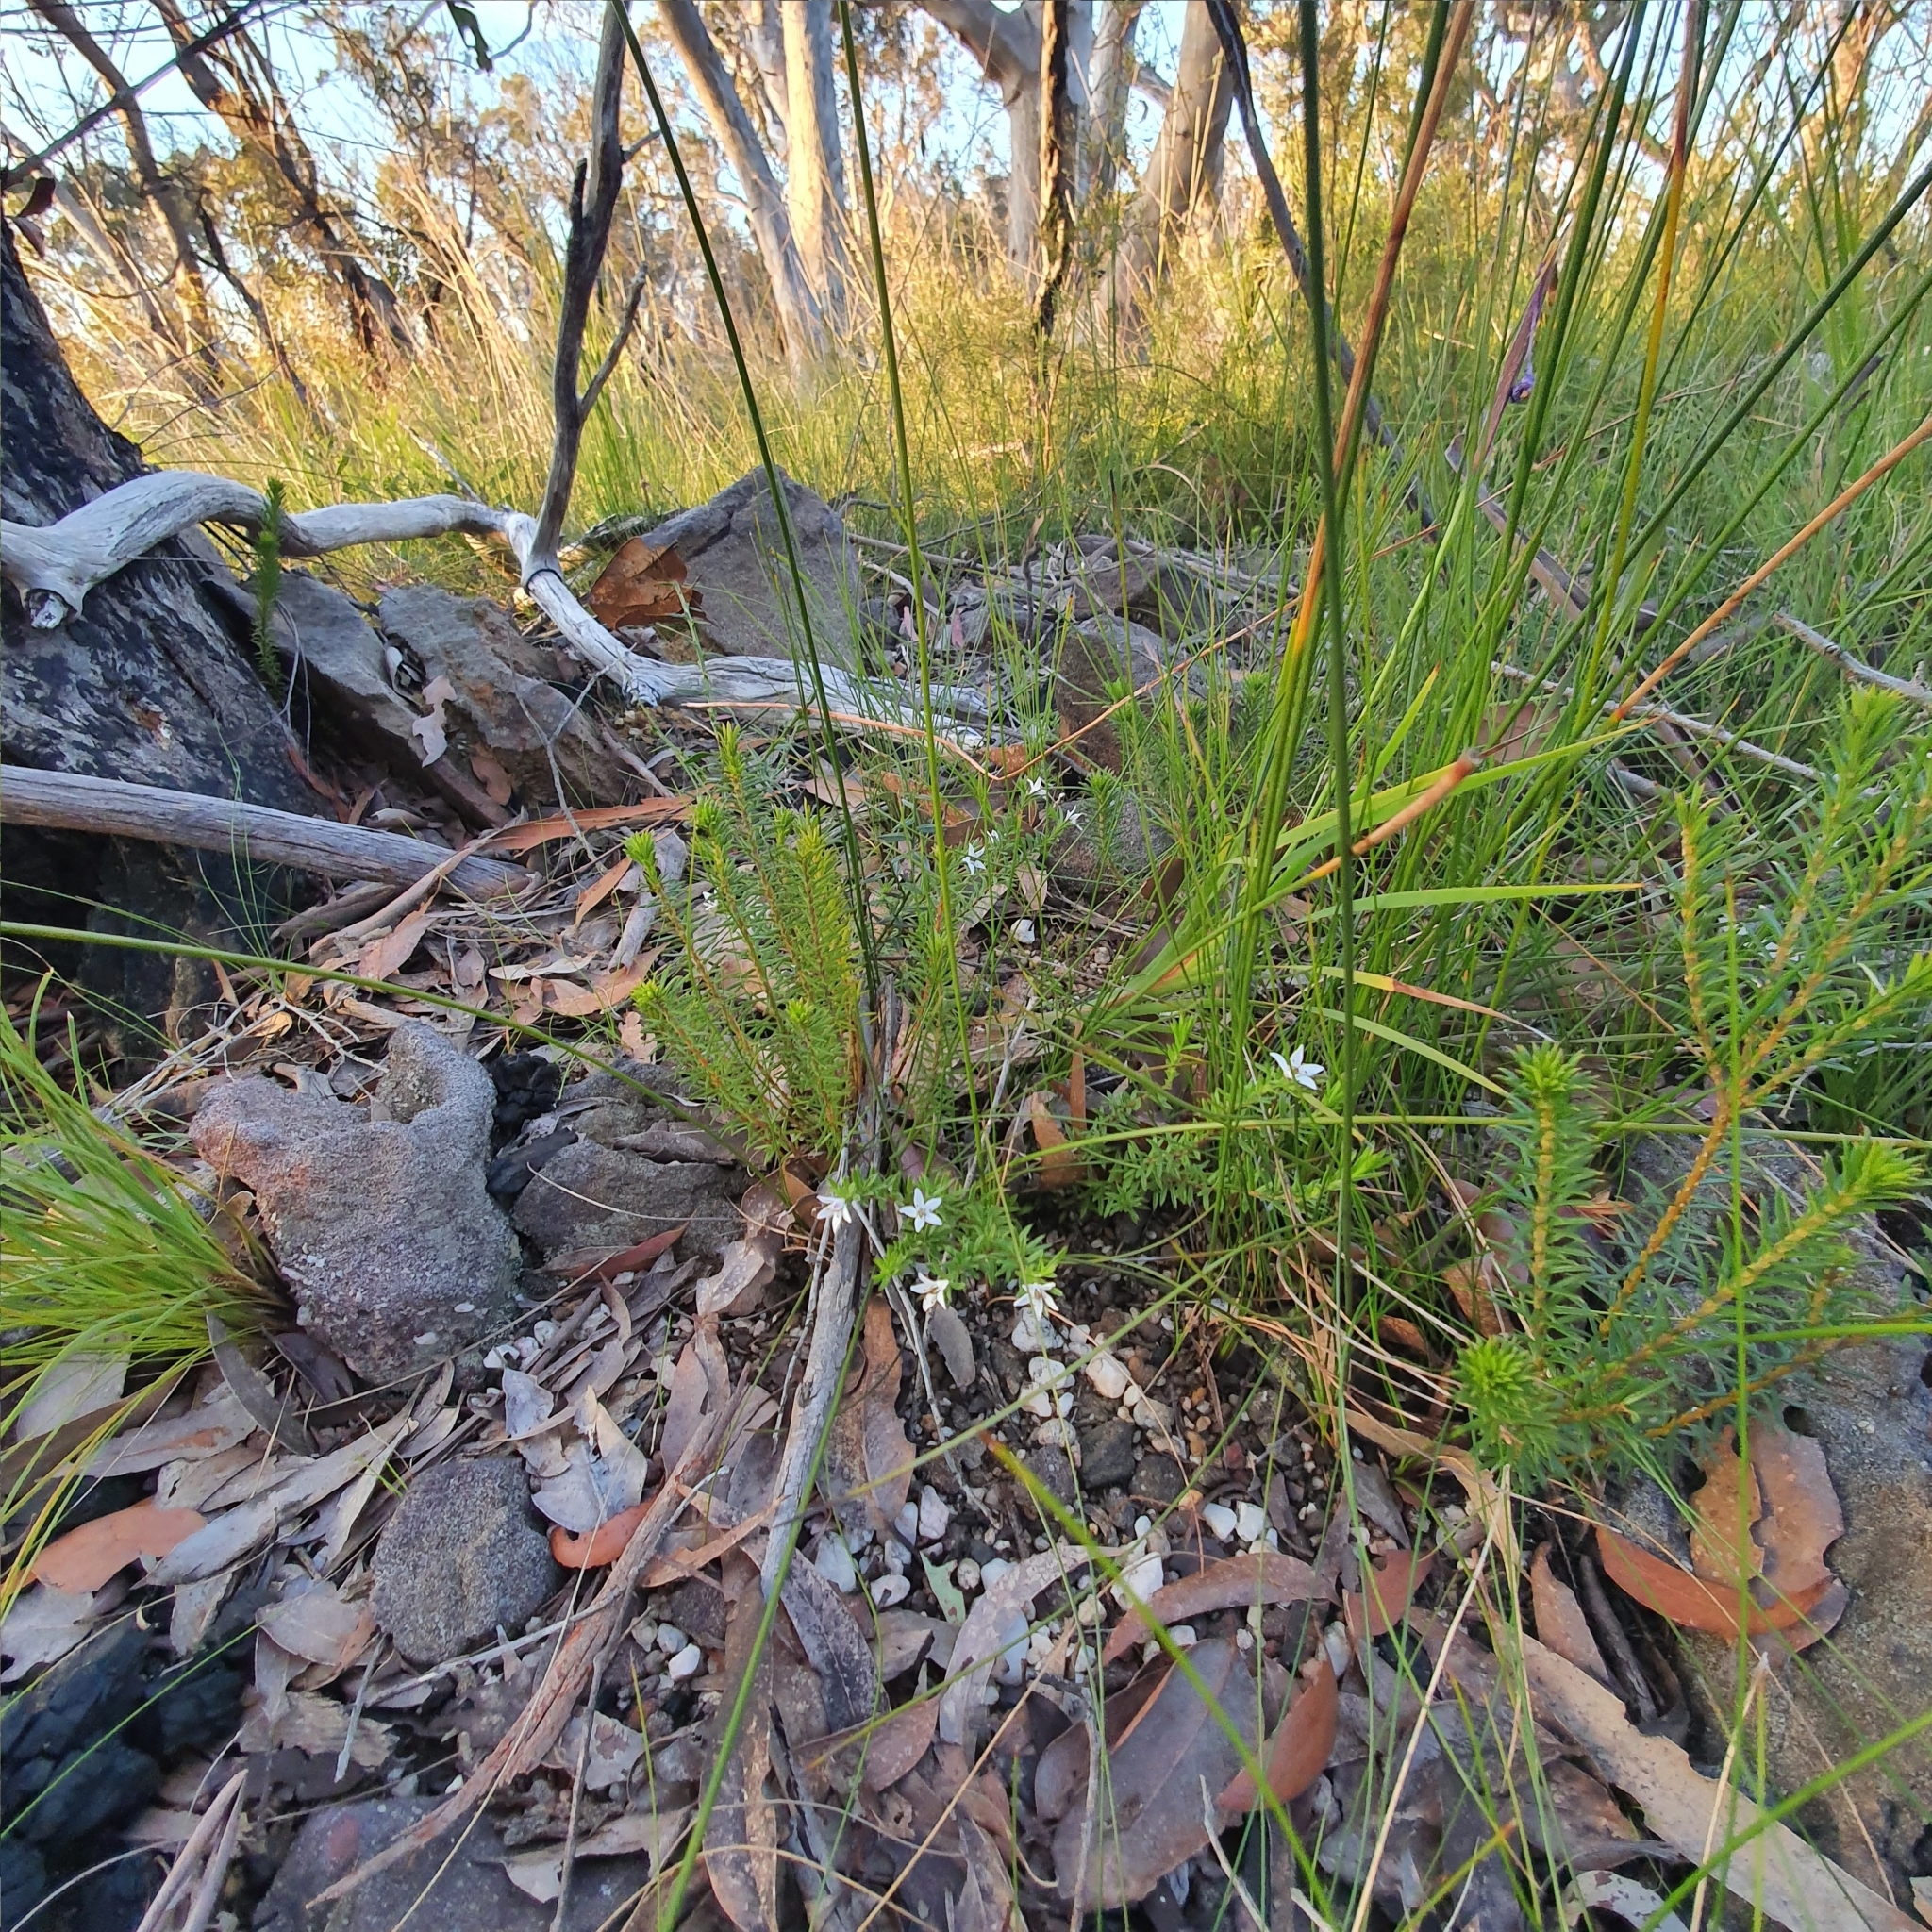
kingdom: Plantae
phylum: Tracheophyta
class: Magnoliopsida
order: Apiales
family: Pittosporaceae
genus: Rhytidosporum
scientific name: Rhytidosporum procumbens
